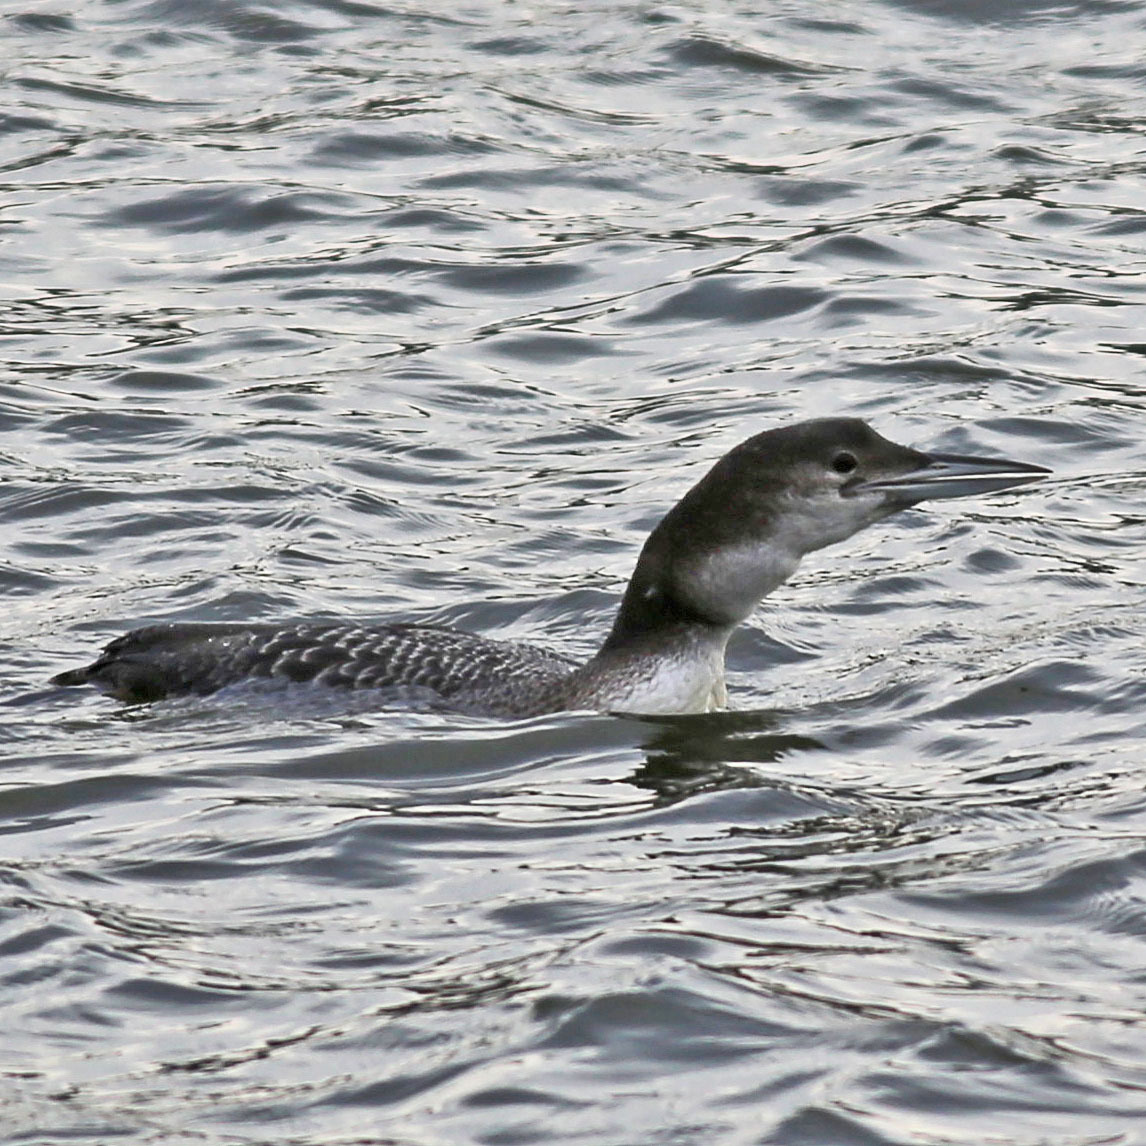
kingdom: Animalia
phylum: Chordata
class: Aves
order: Gaviiformes
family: Gaviidae
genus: Gavia
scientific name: Gavia immer
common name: Common loon
